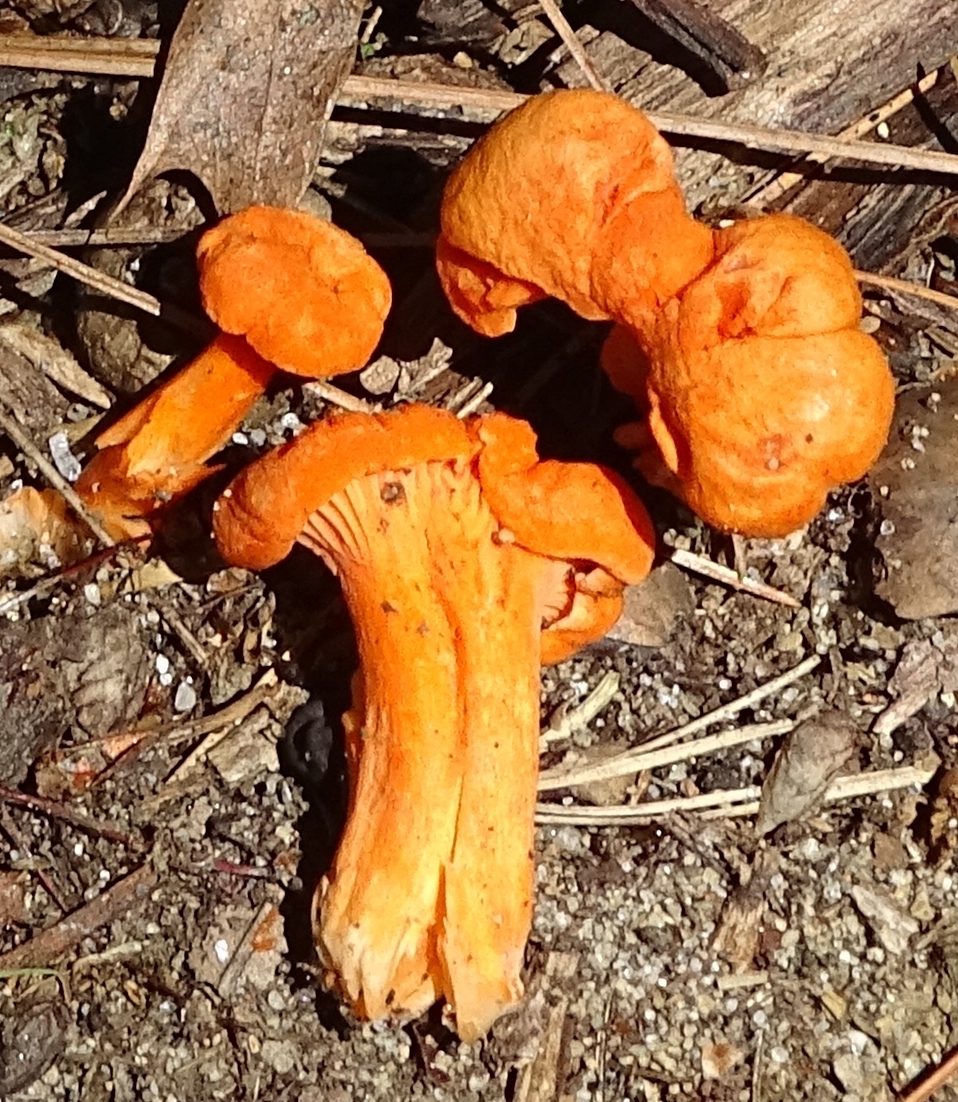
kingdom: Fungi
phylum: Basidiomycota
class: Agaricomycetes
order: Cantharellales
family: Hydnaceae
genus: Cantharellus
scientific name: Cantharellus cinnabarinus
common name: Cinnabar chanterelle
